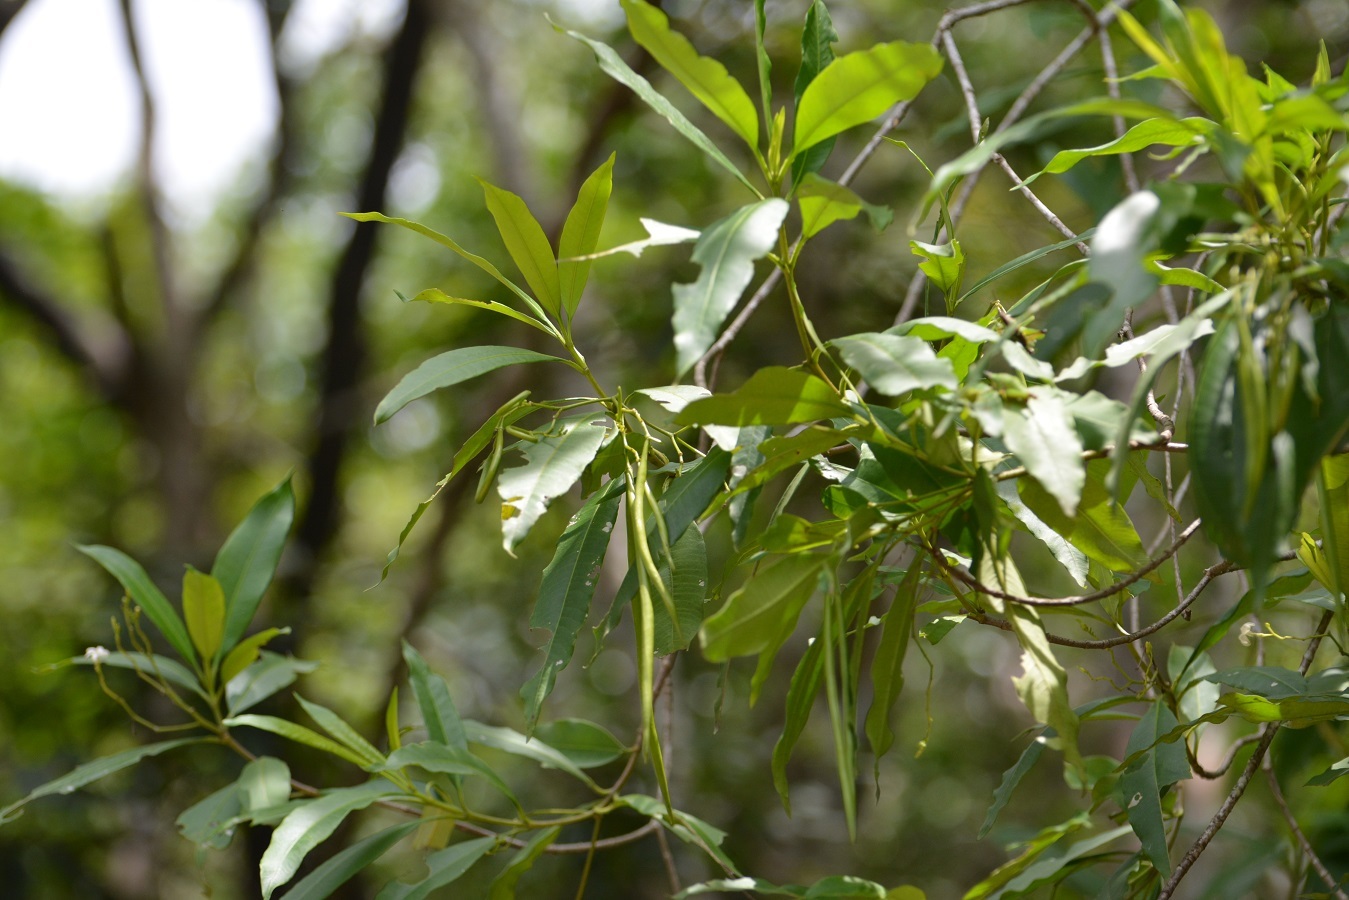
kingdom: Plantae
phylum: Tracheophyta
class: Magnoliopsida
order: Gentianales
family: Apocynaceae
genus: Tonduzia
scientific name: Tonduzia longifolia
